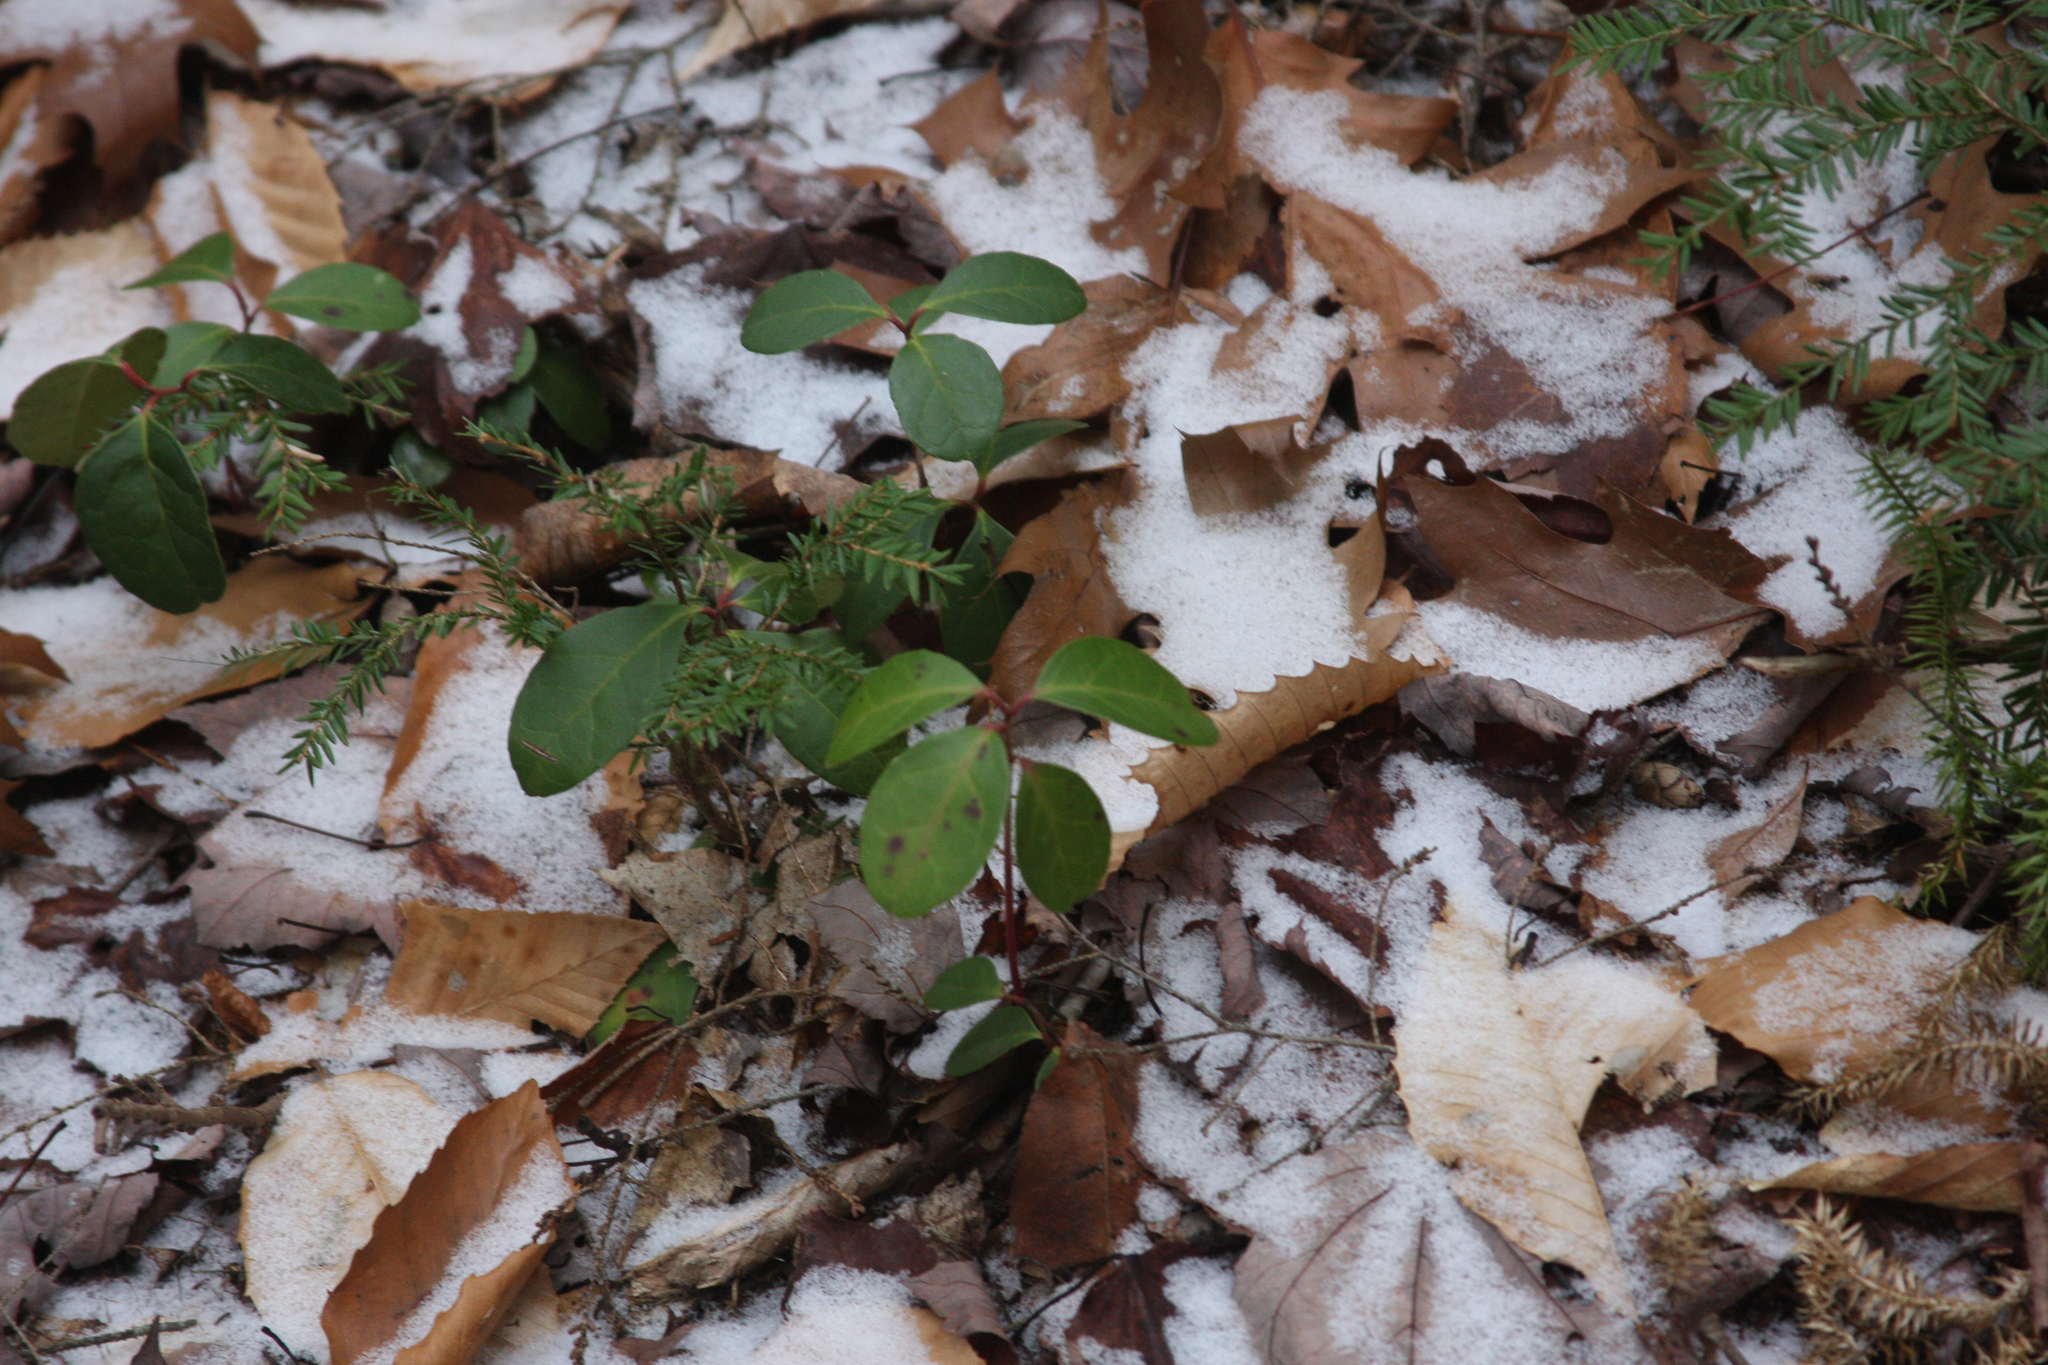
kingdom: Plantae
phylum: Tracheophyta
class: Pinopsida
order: Pinales
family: Pinaceae
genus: Tsuga
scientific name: Tsuga canadensis
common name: Eastern hemlock
